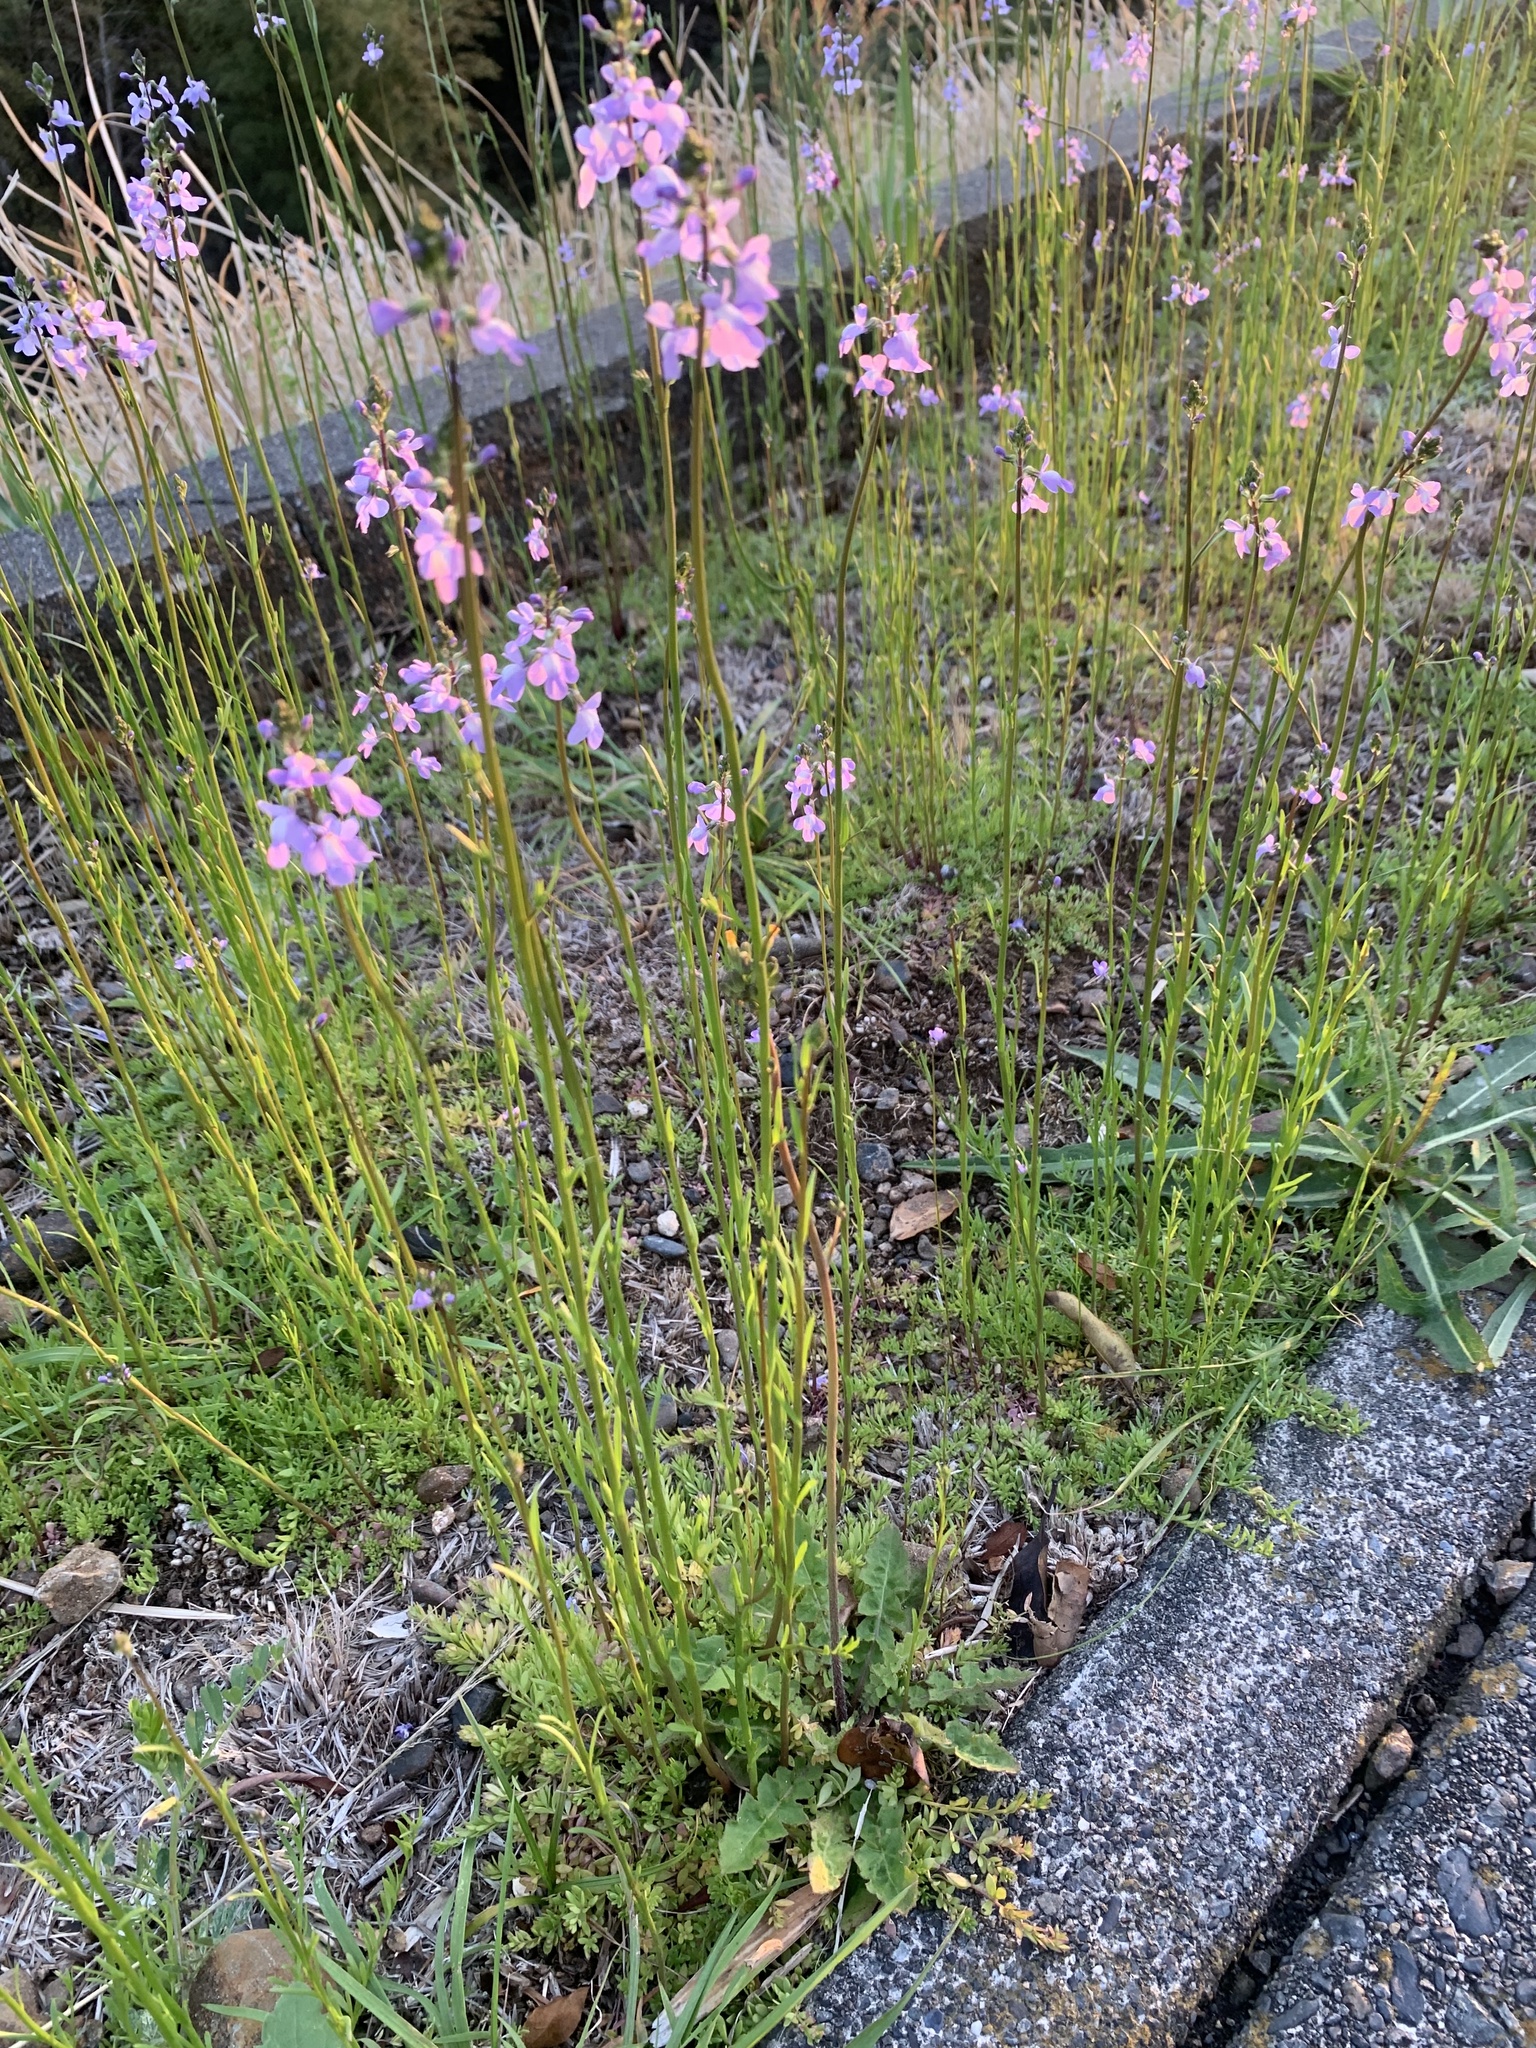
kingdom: Plantae
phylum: Tracheophyta
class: Magnoliopsida
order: Lamiales
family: Plantaginaceae
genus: Nuttallanthus
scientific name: Nuttallanthus canadensis
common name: Blue toadflax
